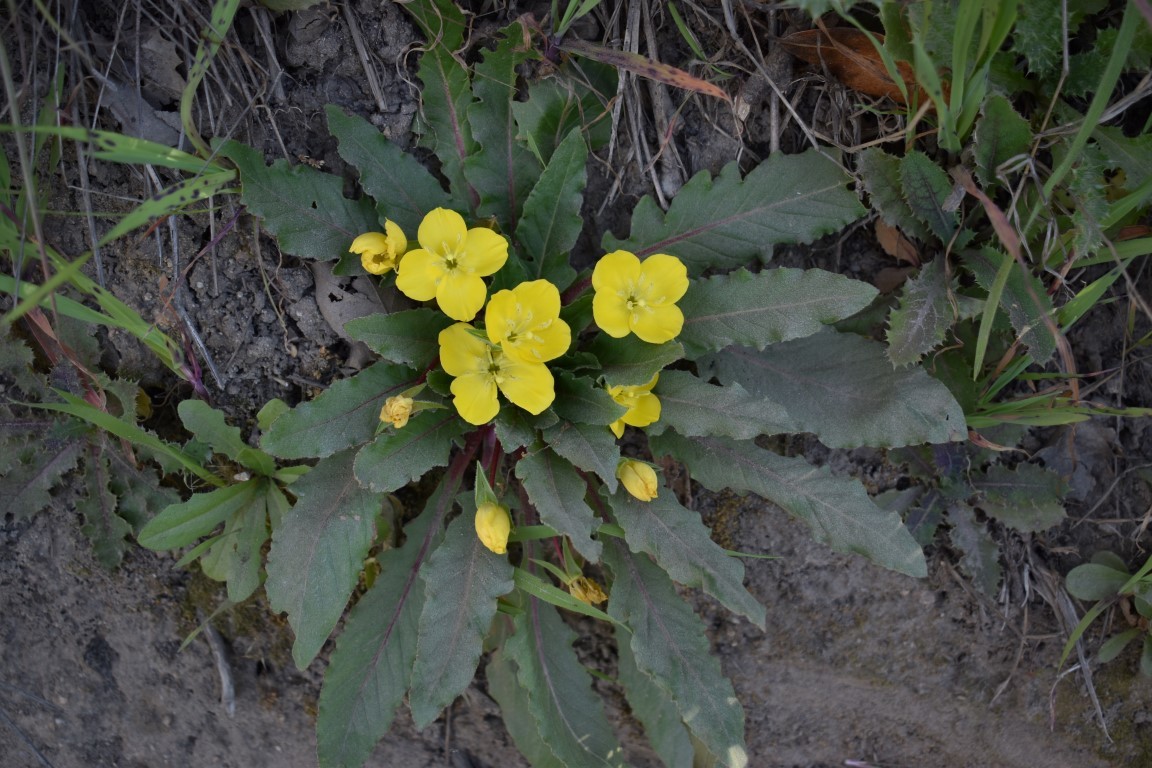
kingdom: Plantae
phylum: Tracheophyta
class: Magnoliopsida
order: Myrtales
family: Onagraceae
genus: Taraxia
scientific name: Taraxia ovata
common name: Goldeneggs
